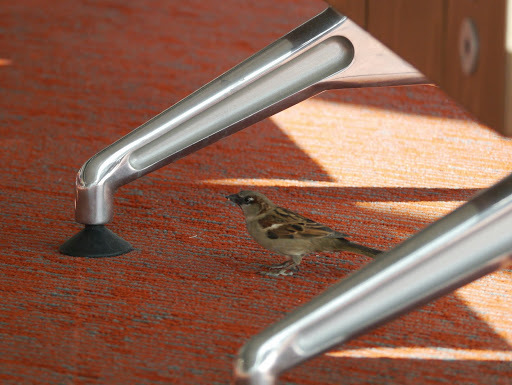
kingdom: Animalia
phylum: Chordata
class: Aves
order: Passeriformes
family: Passeridae
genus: Passer
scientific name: Passer domesticus
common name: House sparrow
